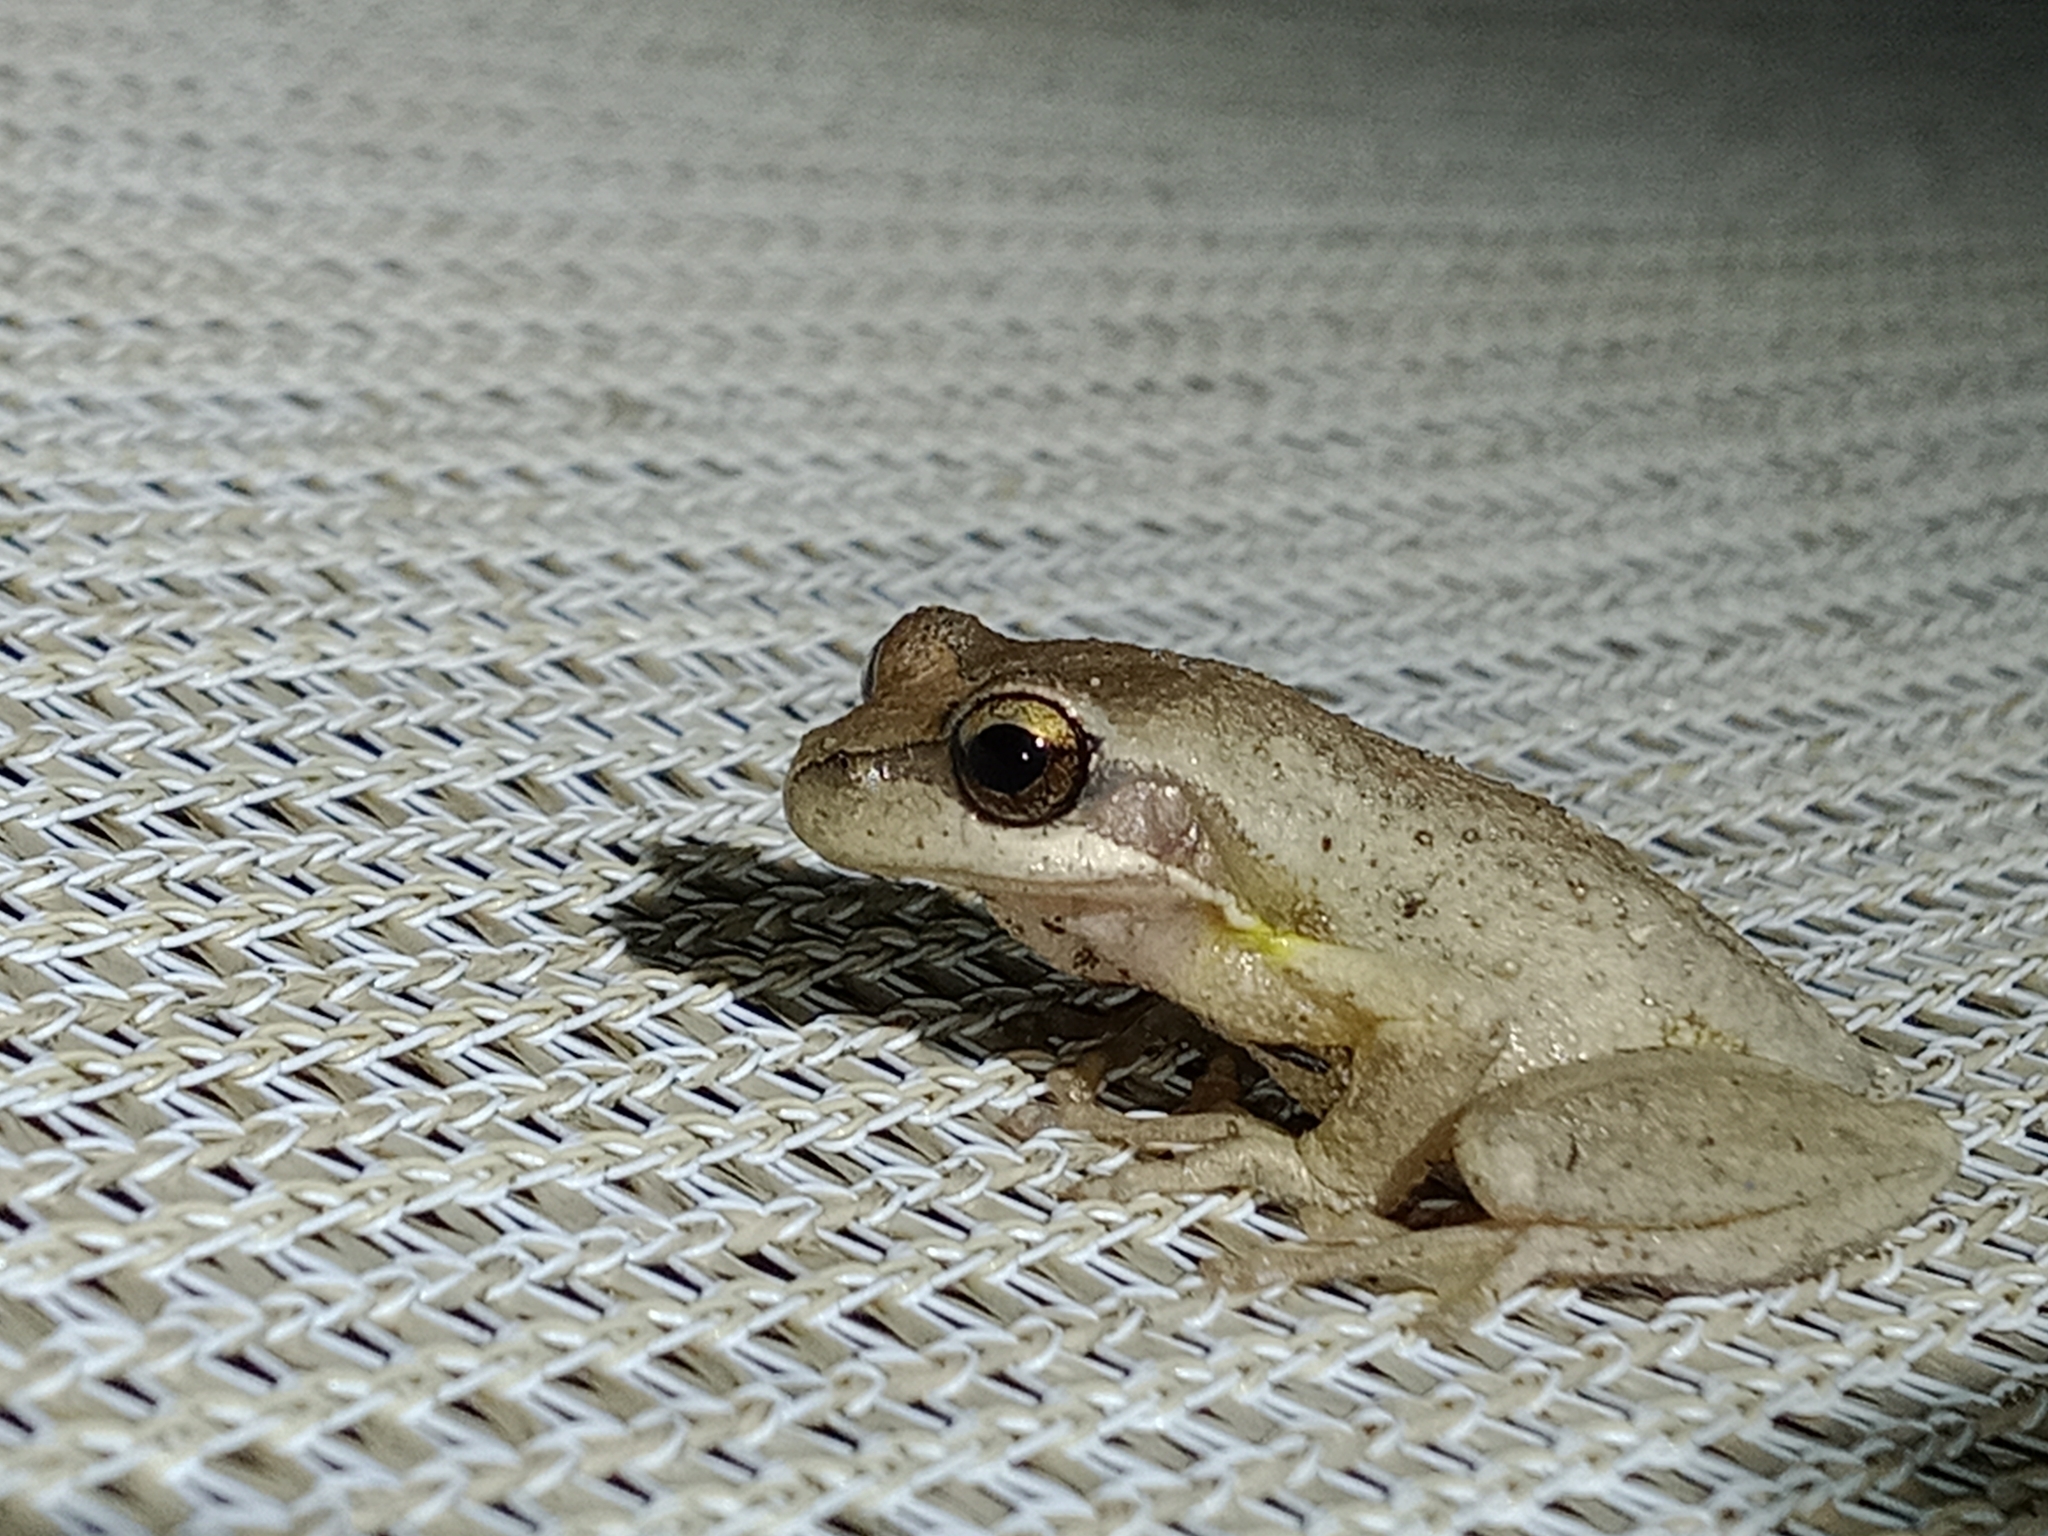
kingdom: Animalia
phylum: Chordata
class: Amphibia
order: Anura
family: Pelodryadidae
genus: Litoria
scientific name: Litoria
